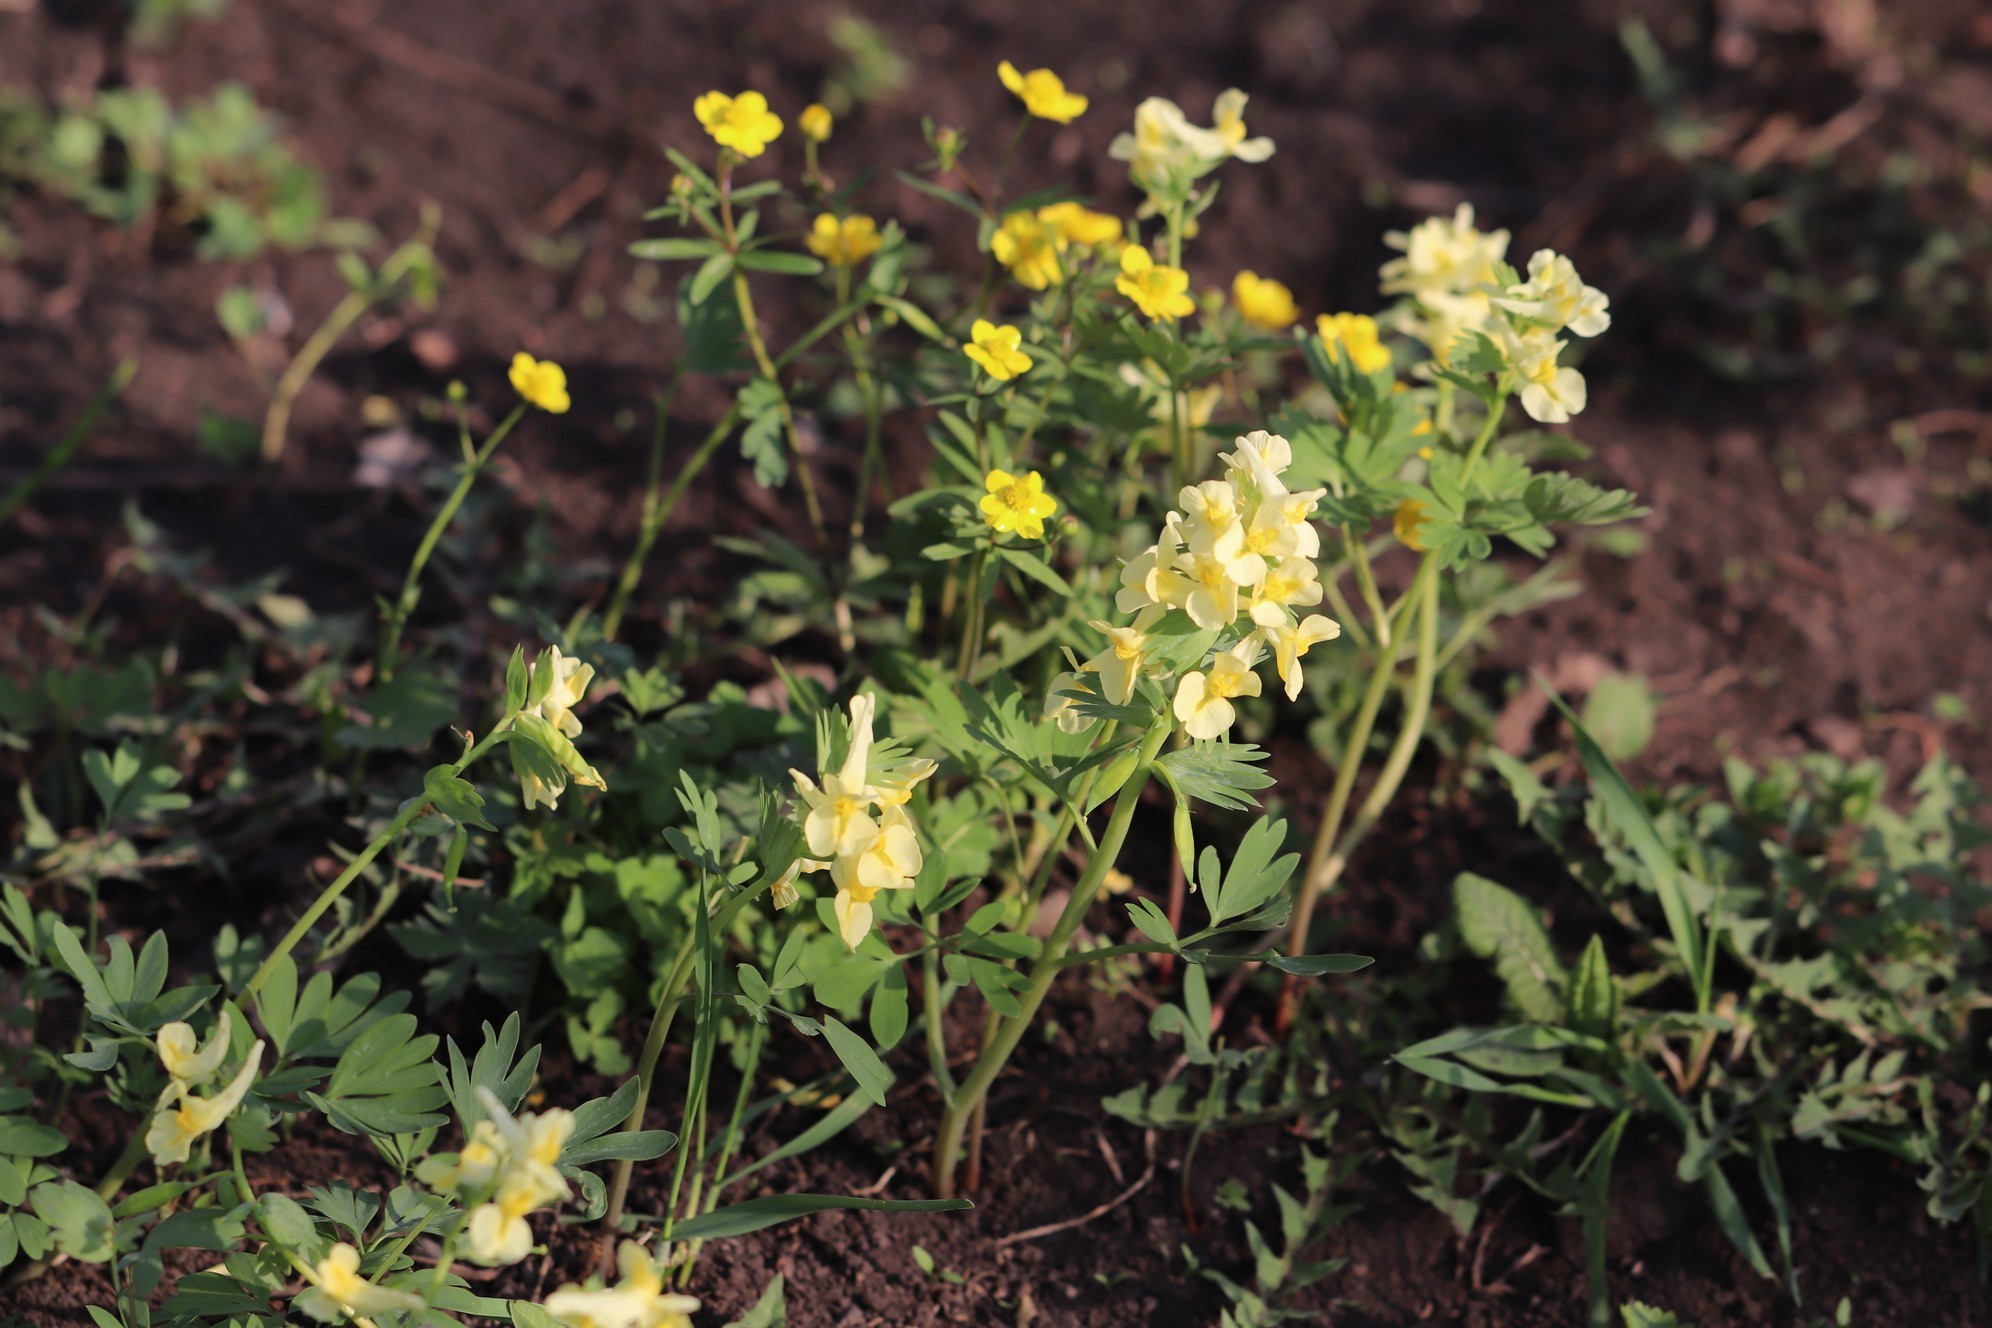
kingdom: Plantae
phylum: Tracheophyta
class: Magnoliopsida
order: Ranunculales
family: Papaveraceae
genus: Corydalis
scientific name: Corydalis bracteata
